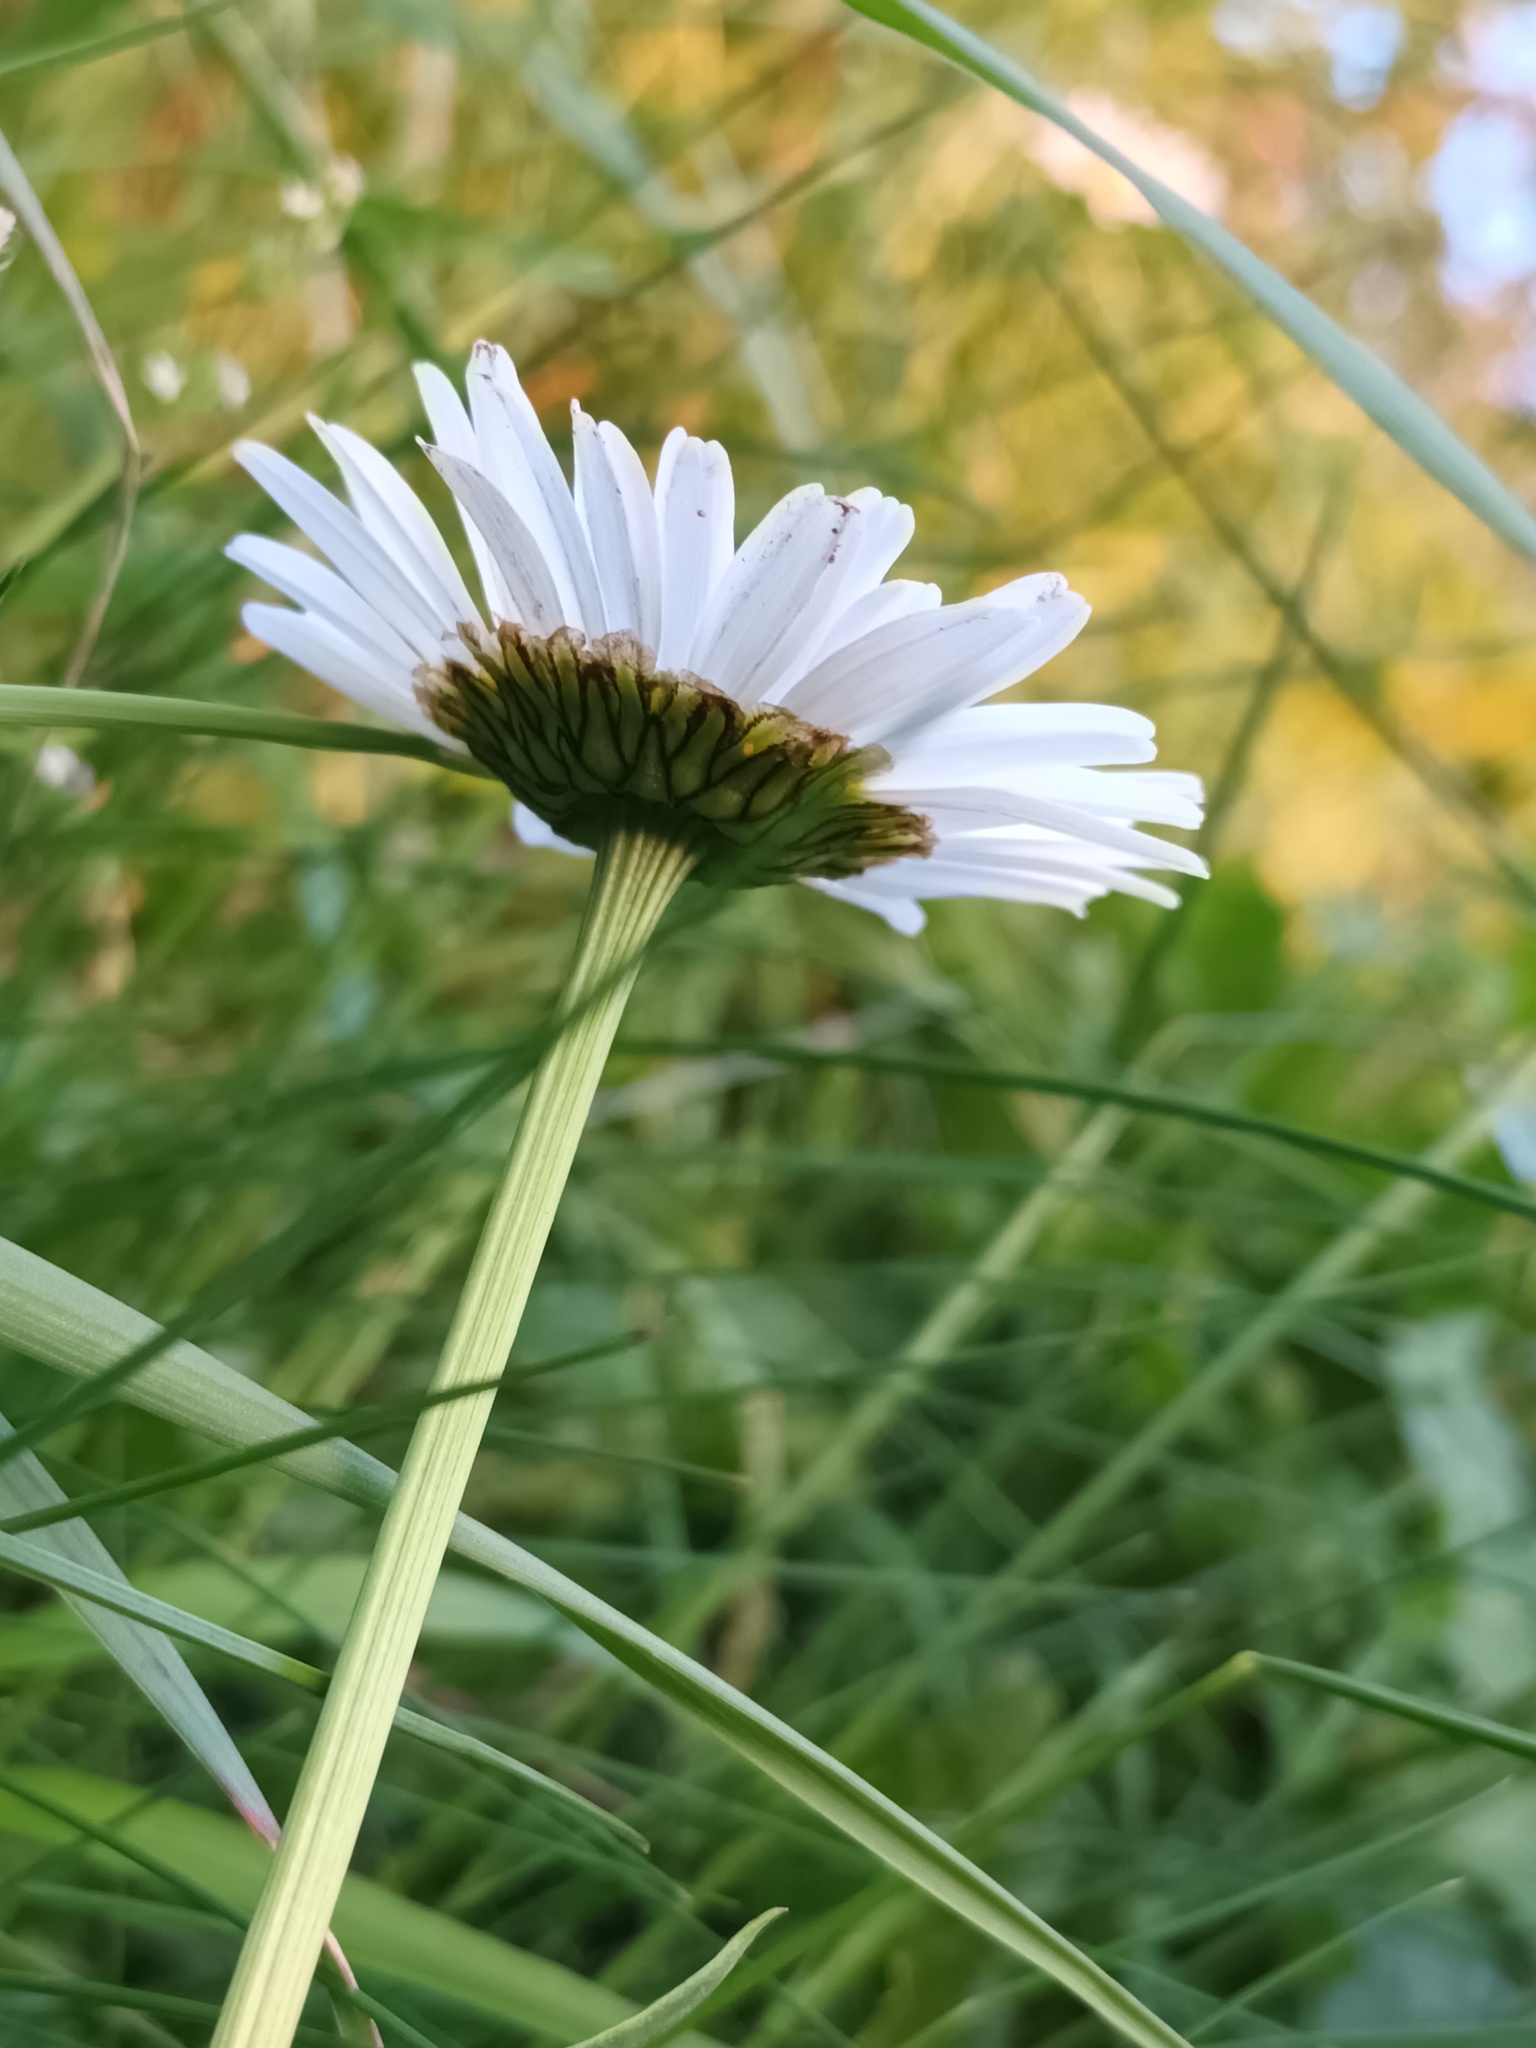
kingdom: Plantae
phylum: Tracheophyta
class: Magnoliopsida
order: Asterales
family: Asteraceae
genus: Leucanthemum
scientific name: Leucanthemum vulgare
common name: Oxeye daisy
